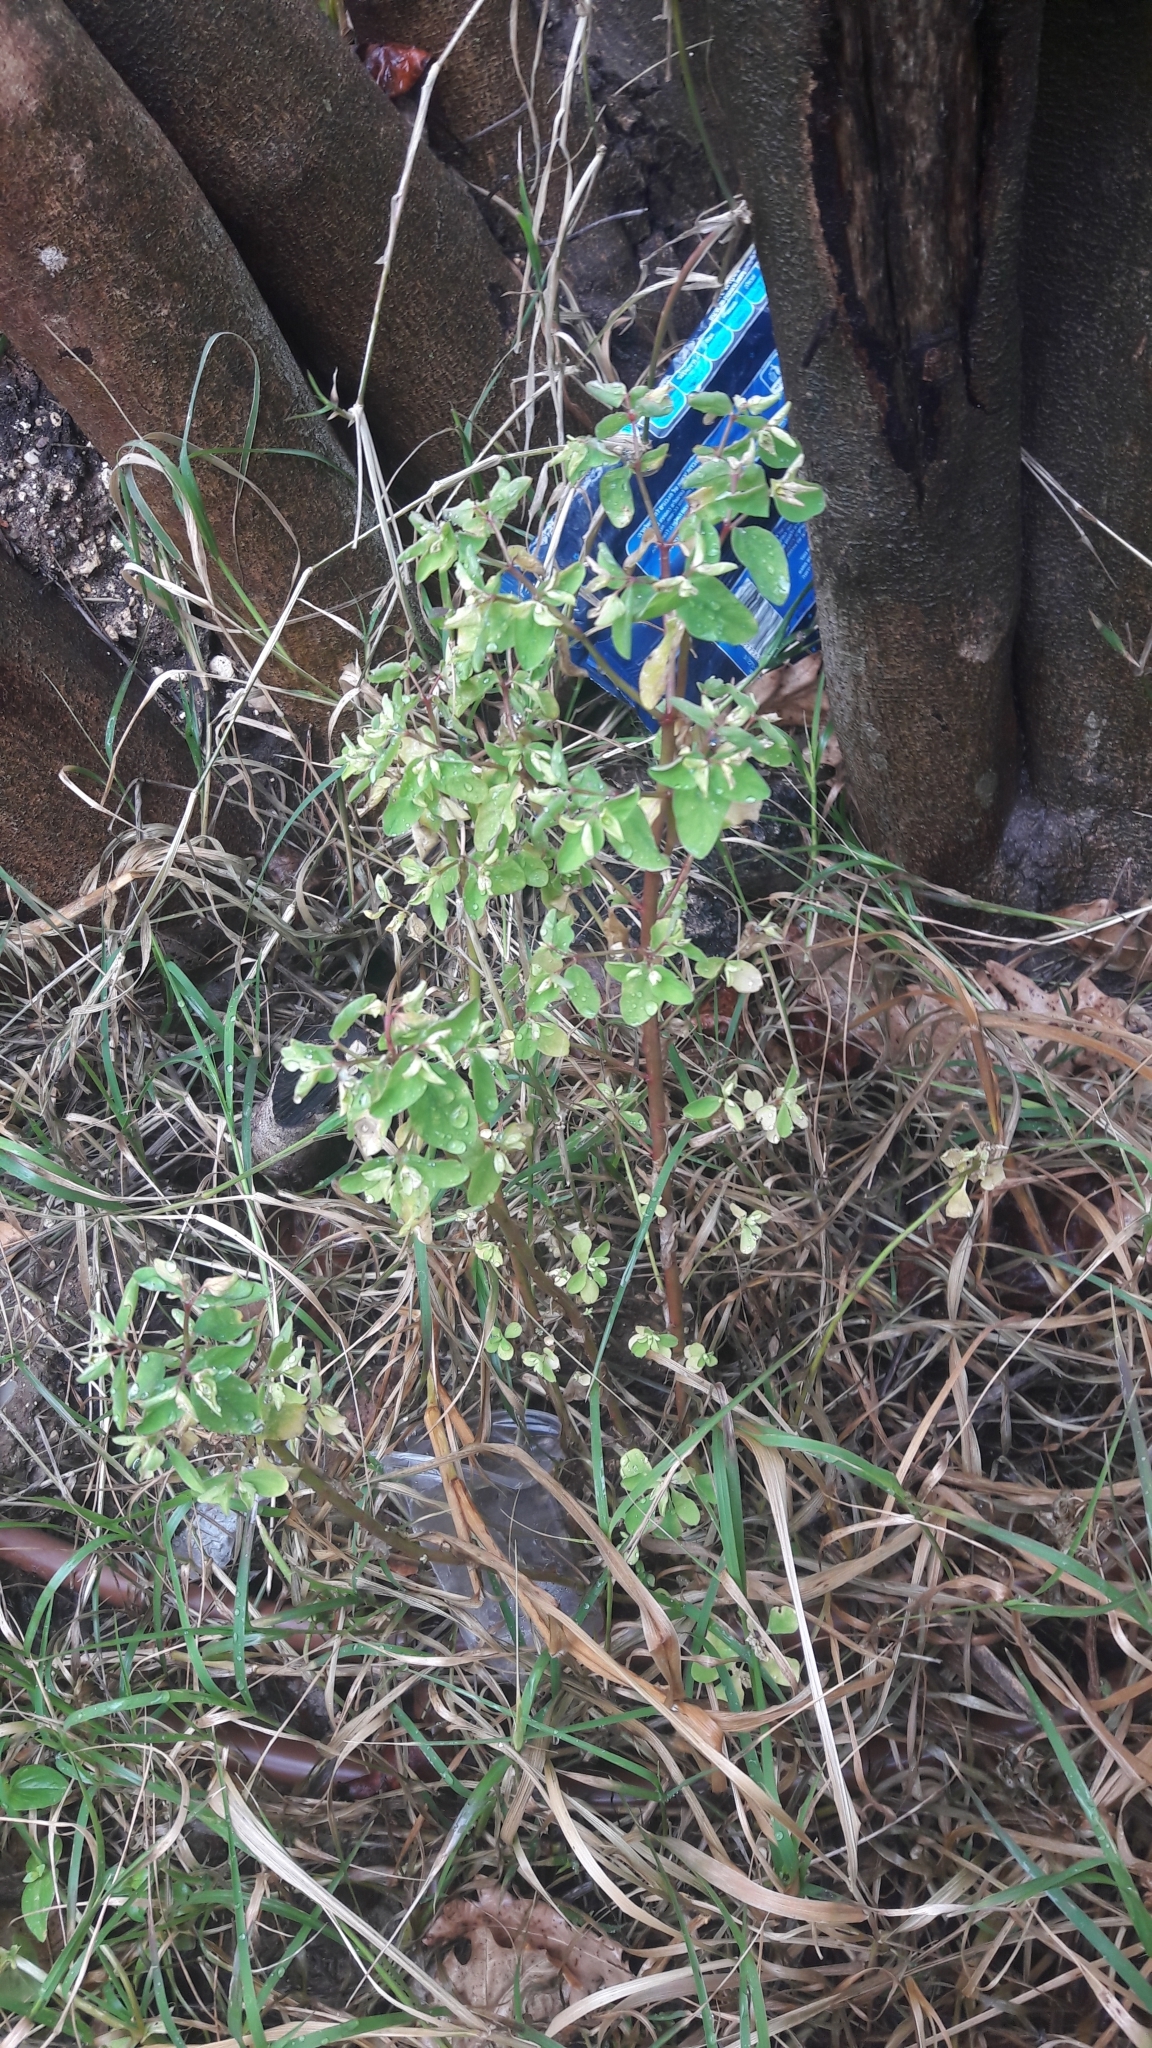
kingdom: Plantae
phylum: Tracheophyta
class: Magnoliopsida
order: Malpighiales
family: Euphorbiaceae
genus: Euphorbia
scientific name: Euphorbia peplus
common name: Petty spurge
